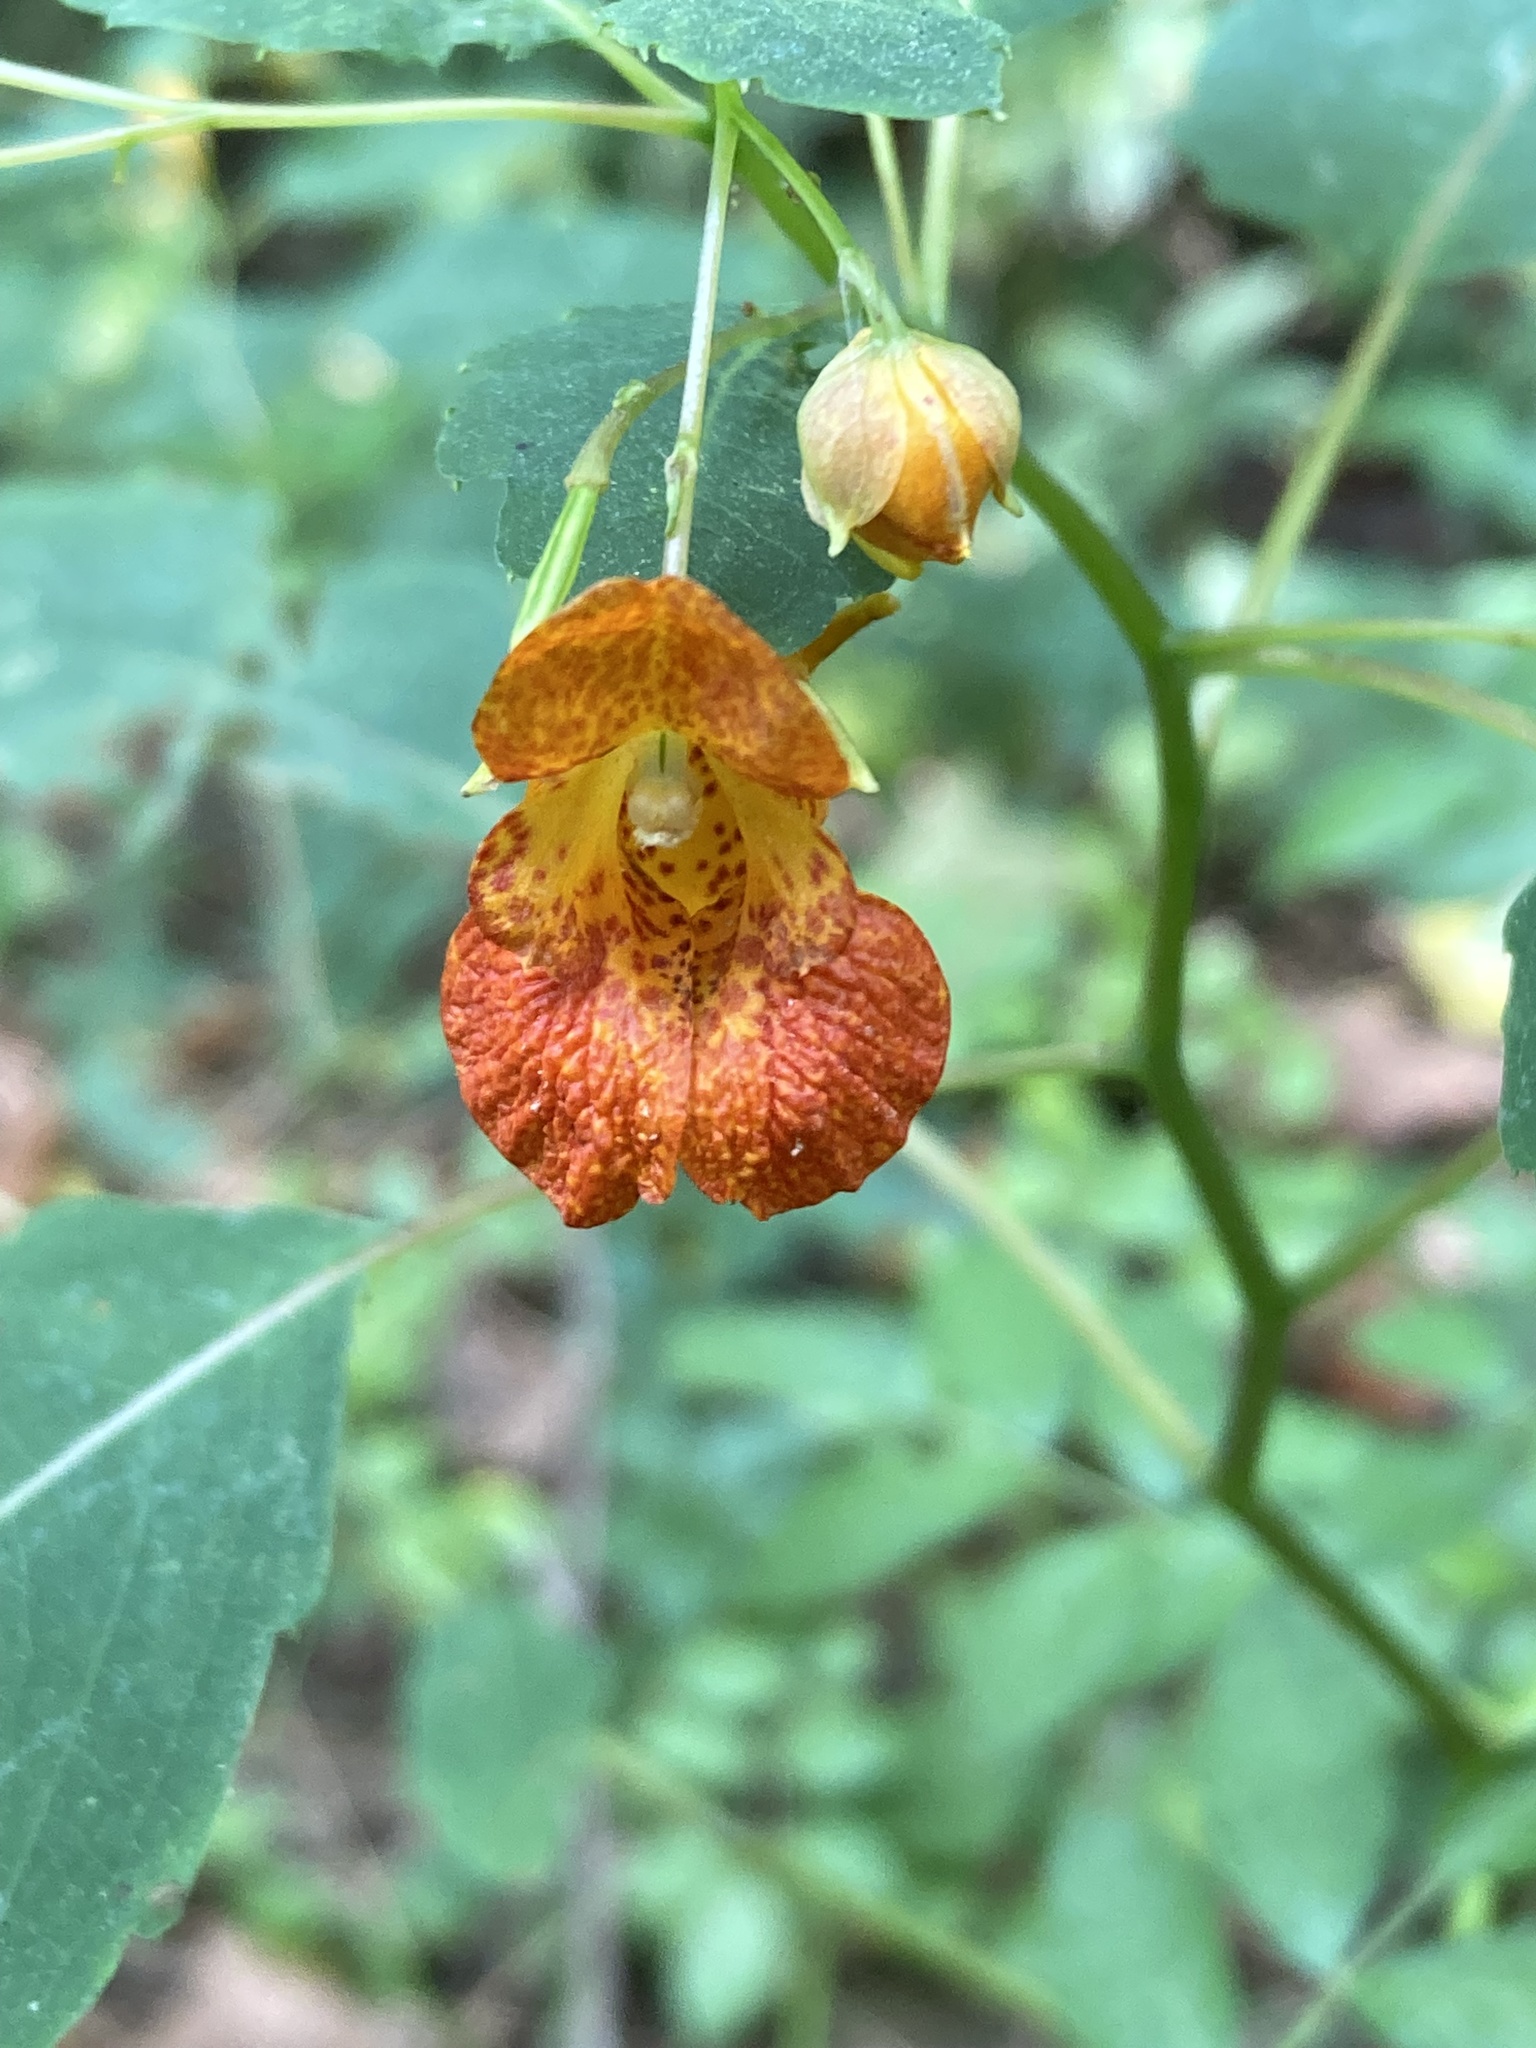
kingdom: Plantae
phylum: Tracheophyta
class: Magnoliopsida
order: Ericales
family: Balsaminaceae
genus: Impatiens
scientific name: Impatiens capensis
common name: Orange balsam
